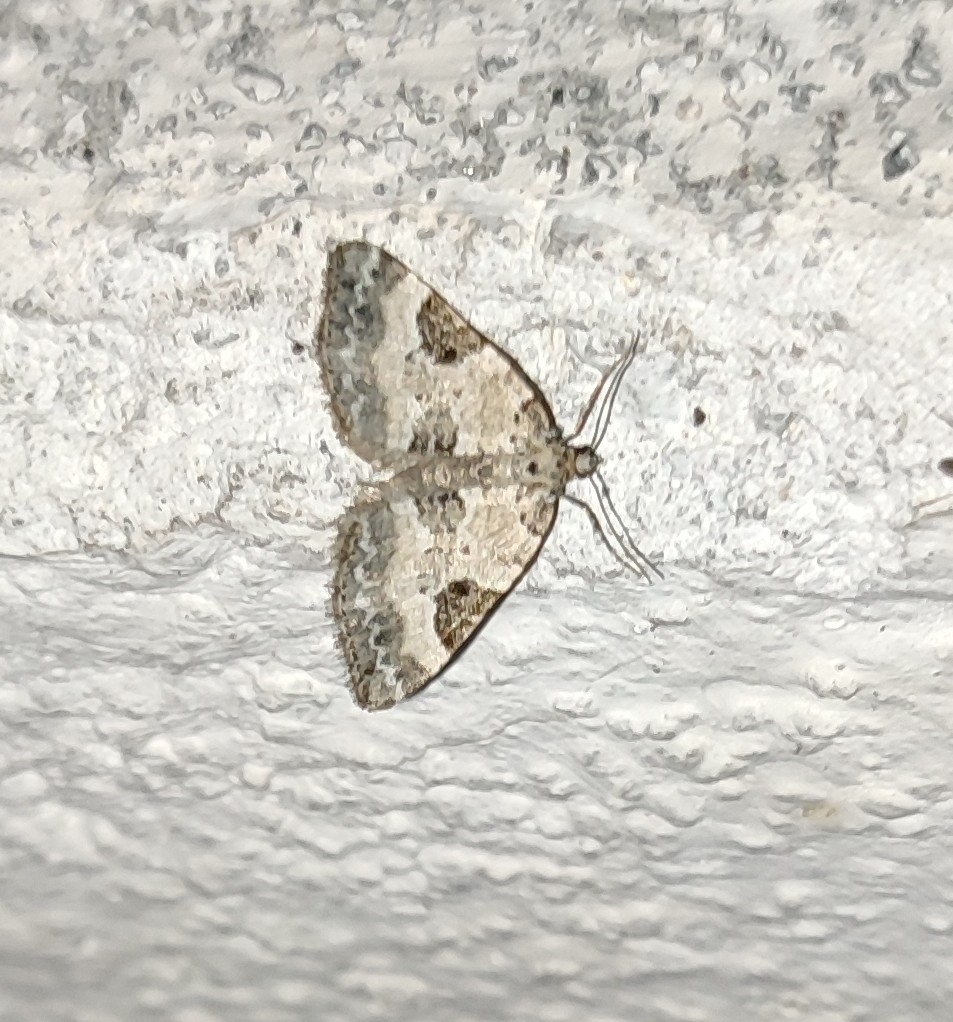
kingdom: Animalia
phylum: Arthropoda
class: Insecta
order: Lepidoptera
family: Geometridae
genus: Perizoma
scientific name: Perizoma blandiata
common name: Pretty pinion
